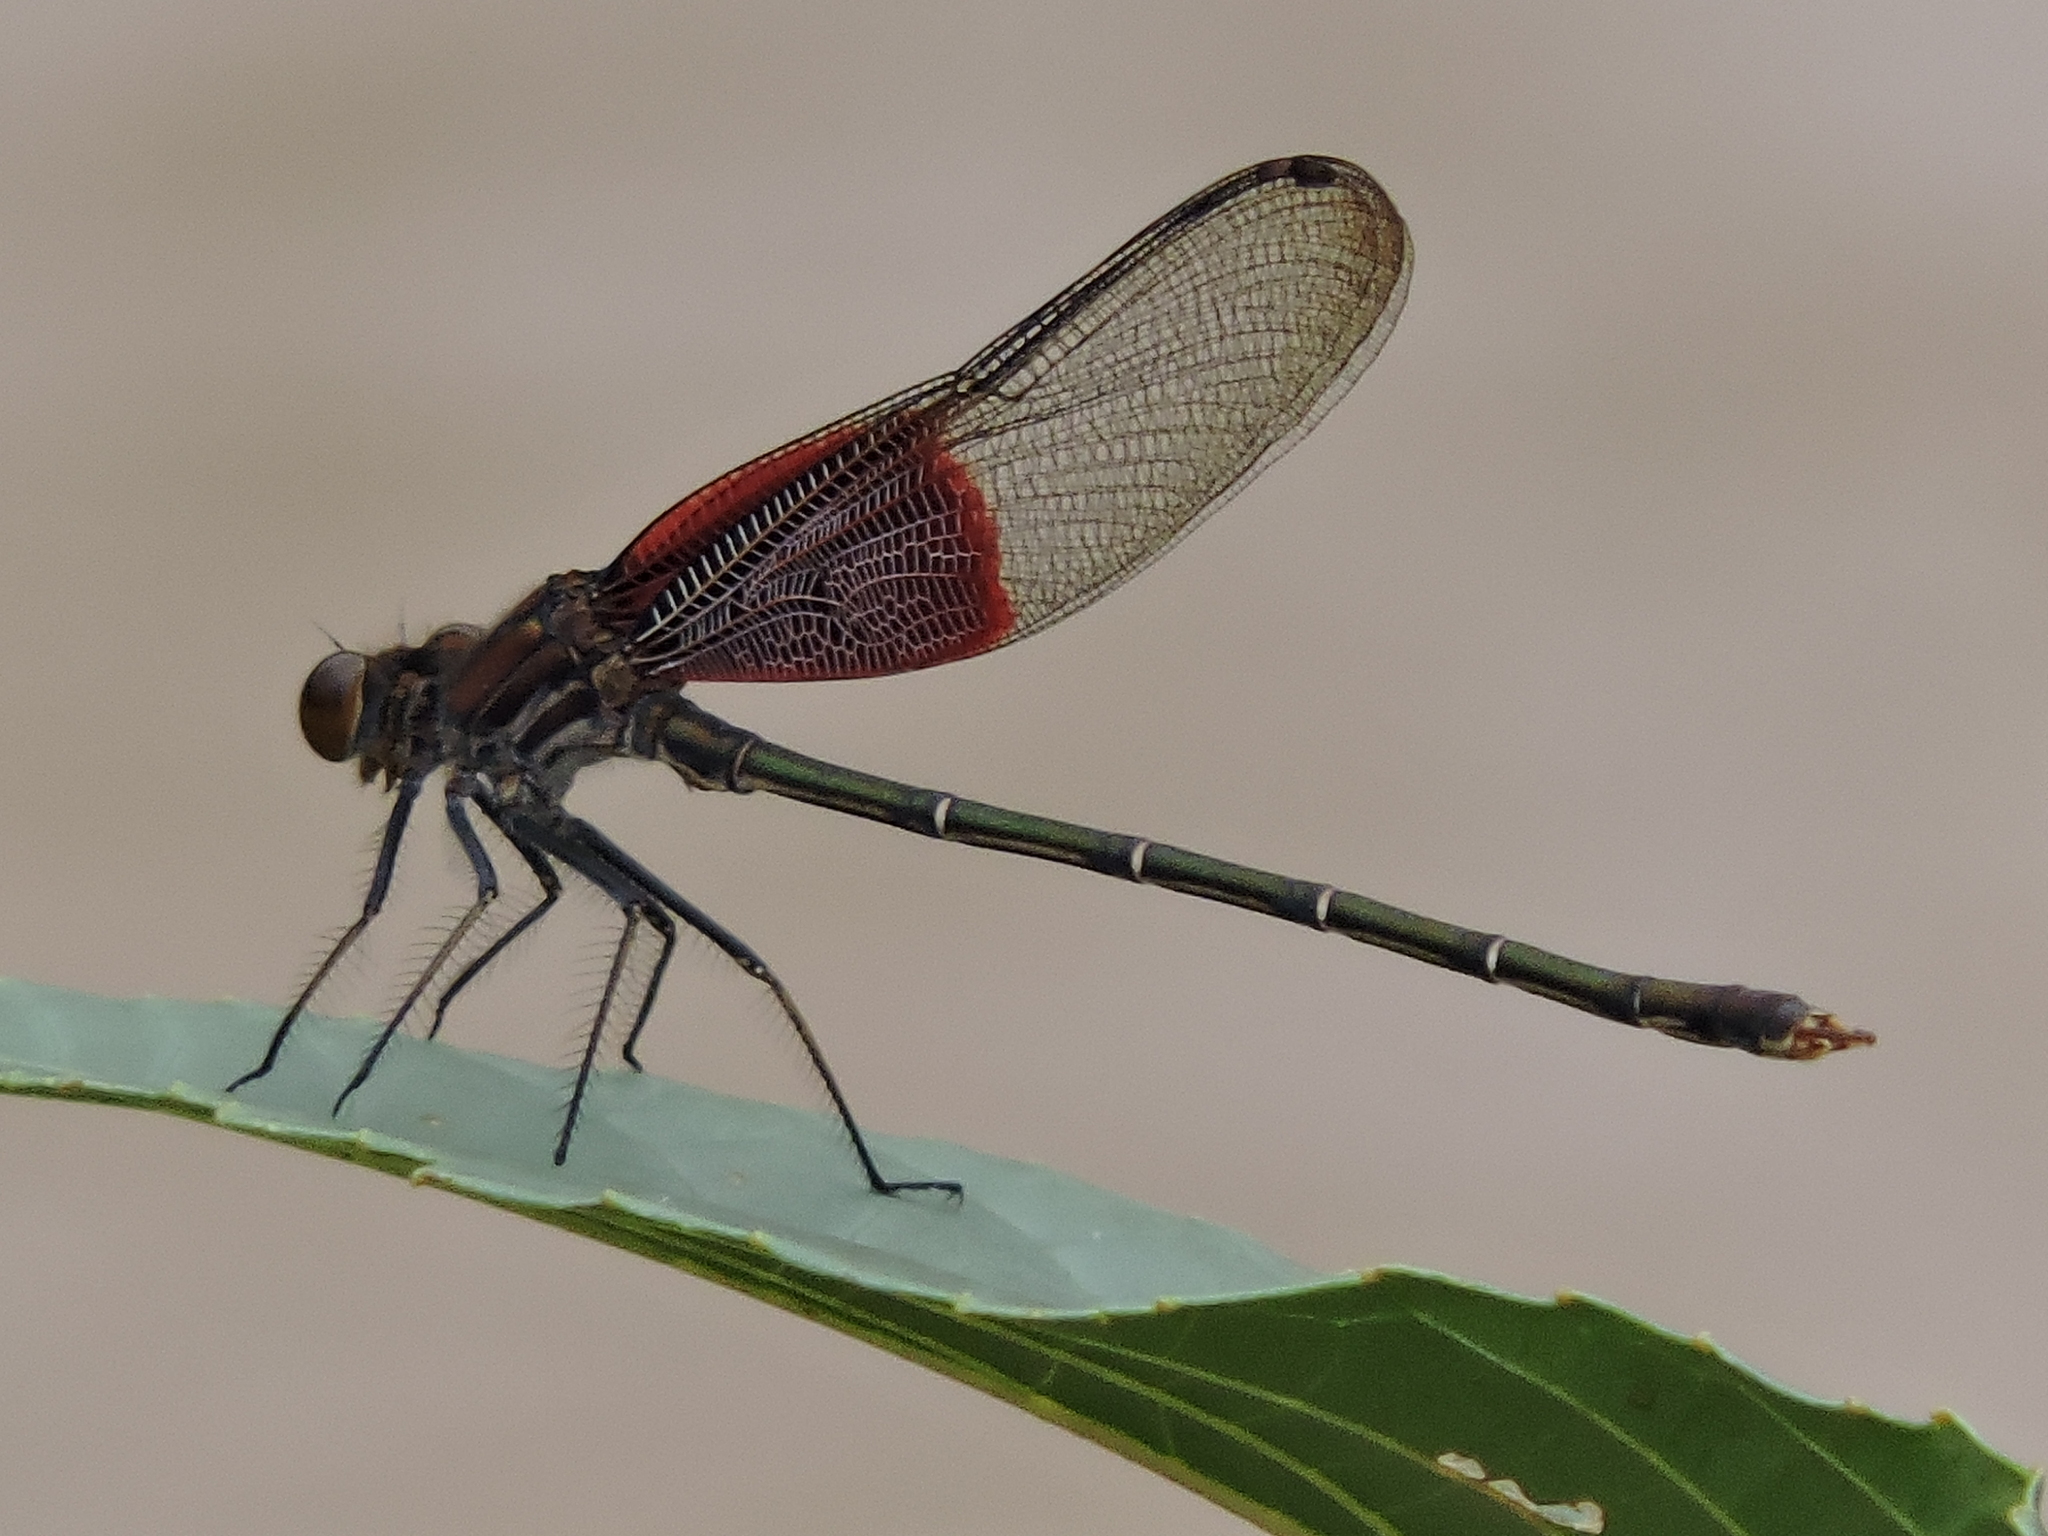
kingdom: Animalia
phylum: Arthropoda
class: Insecta
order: Odonata
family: Calopterygidae
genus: Hetaerina
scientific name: Hetaerina americana
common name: American rubyspot
